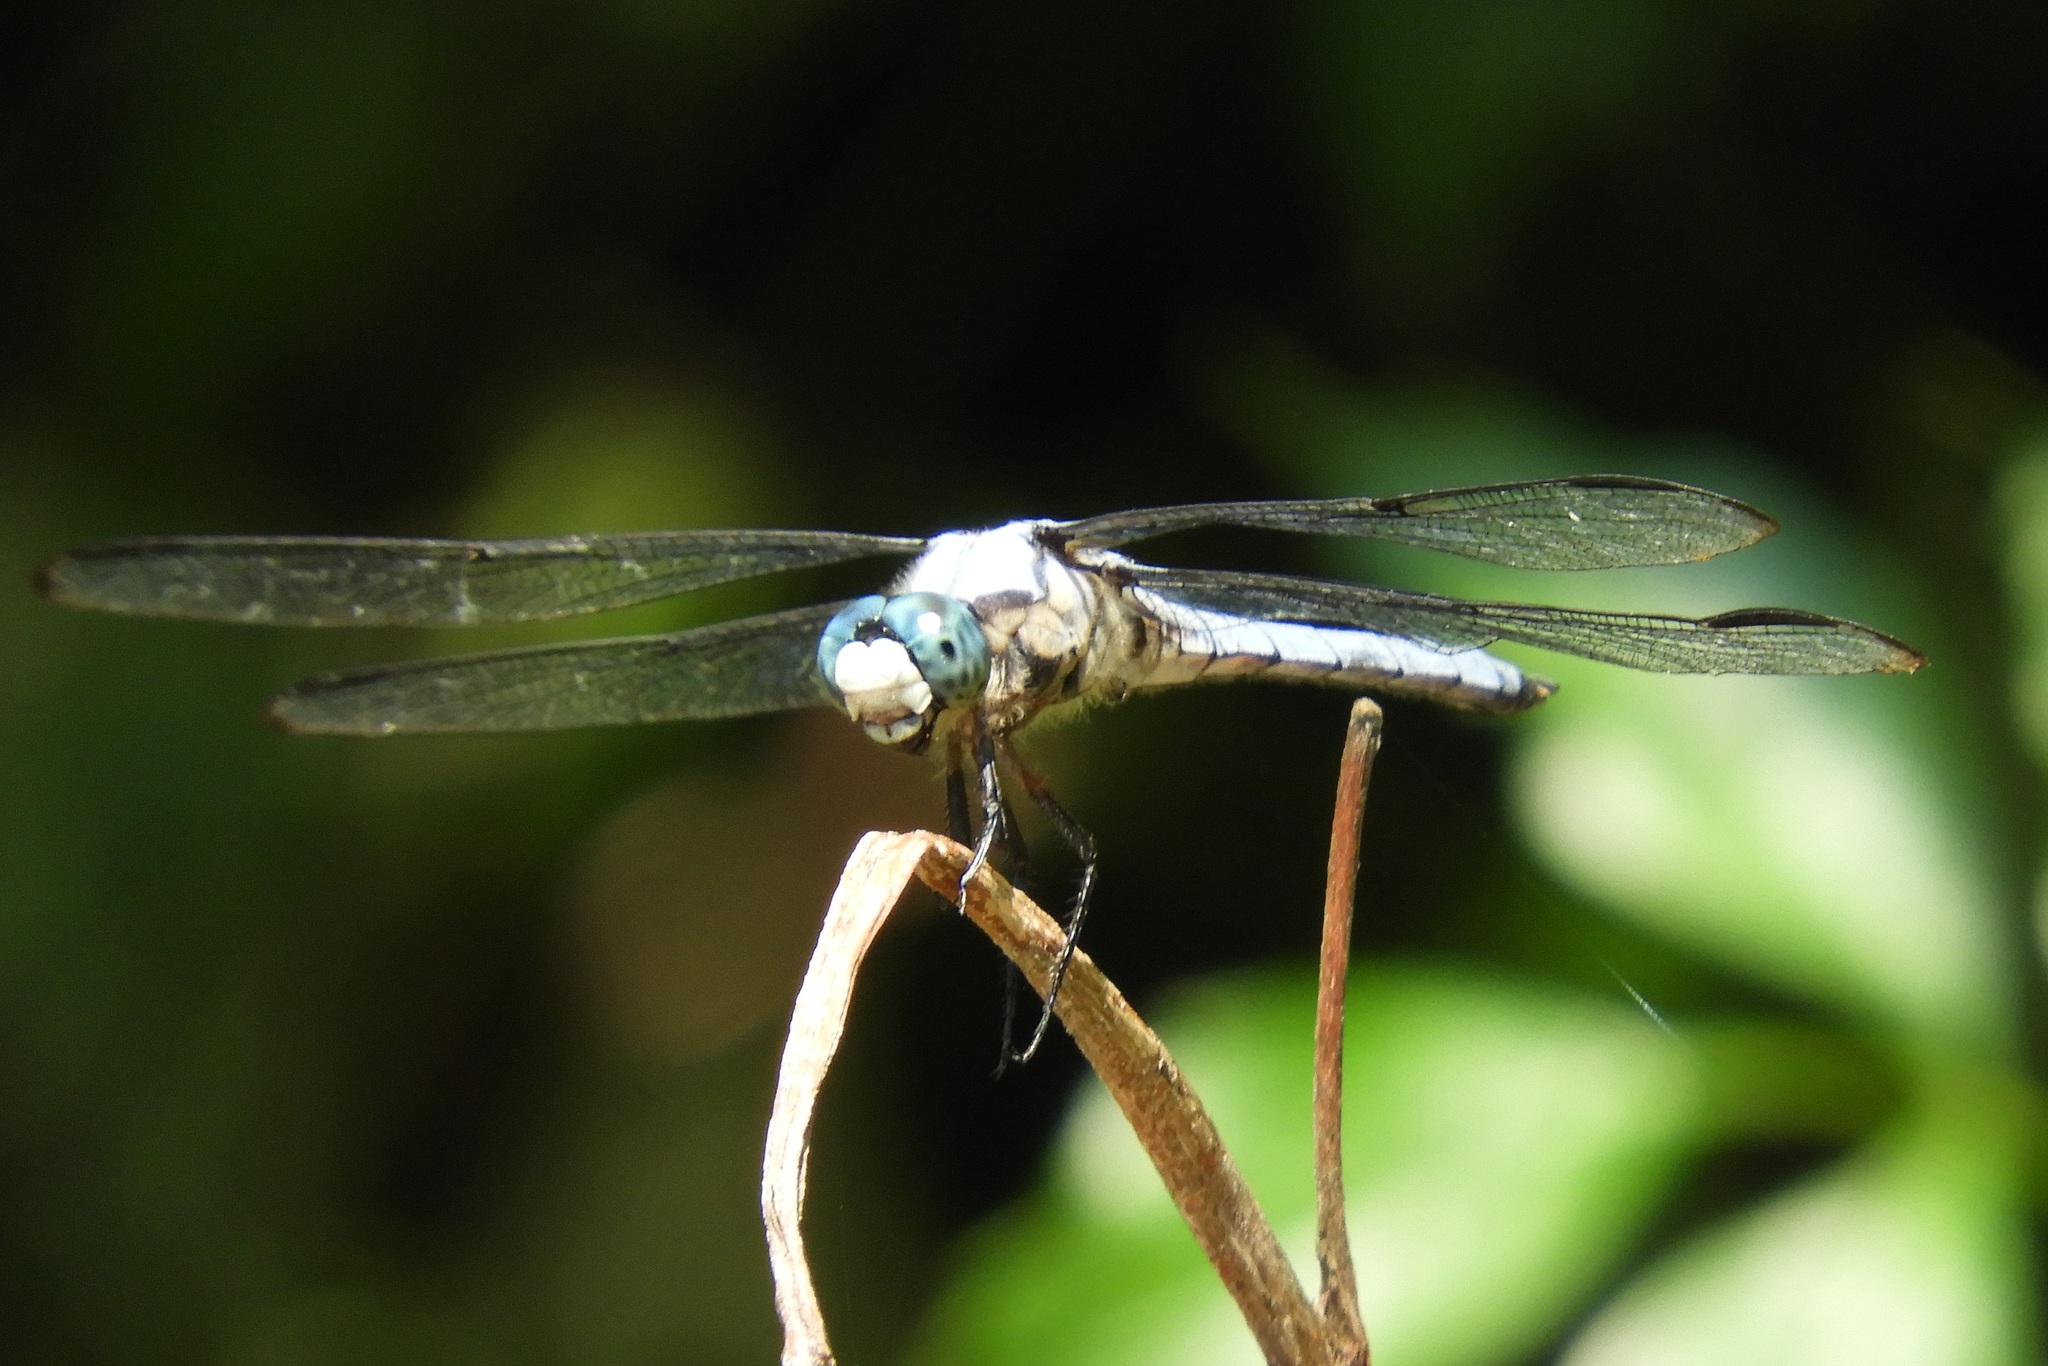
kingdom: Animalia
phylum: Arthropoda
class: Insecta
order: Odonata
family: Libellulidae
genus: Libellula
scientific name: Libellula vibrans
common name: Great blue skimmer
